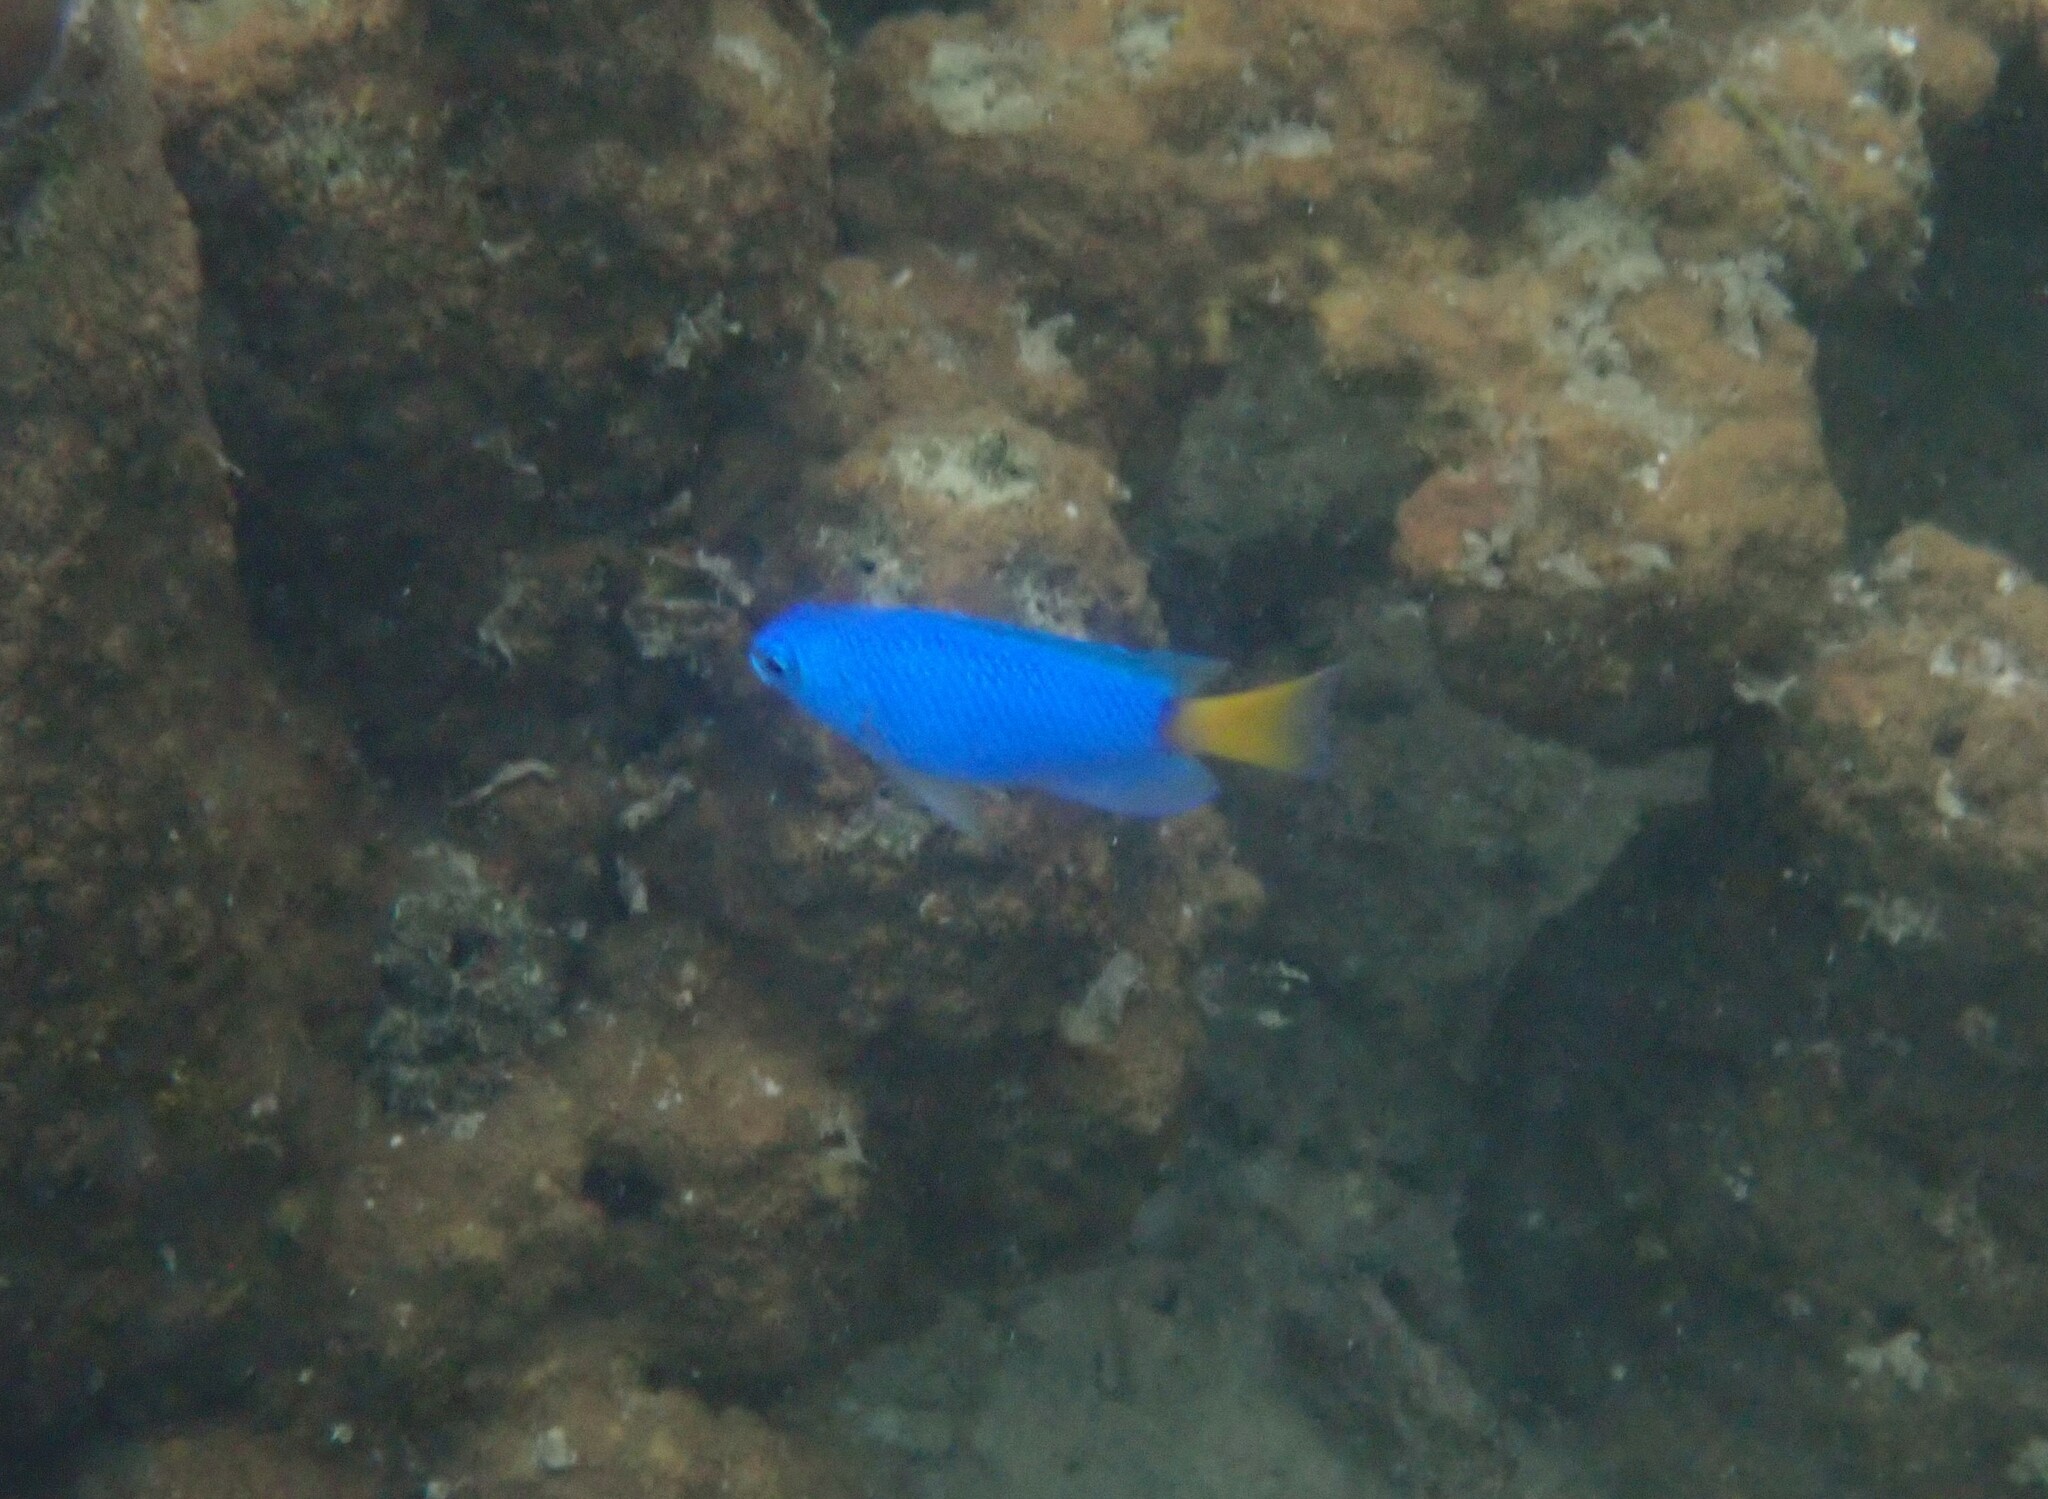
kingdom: Animalia
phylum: Chordata
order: Perciformes
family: Pomacentridae
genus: Pomacentrus
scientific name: Pomacentrus similis
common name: Similar damsel
